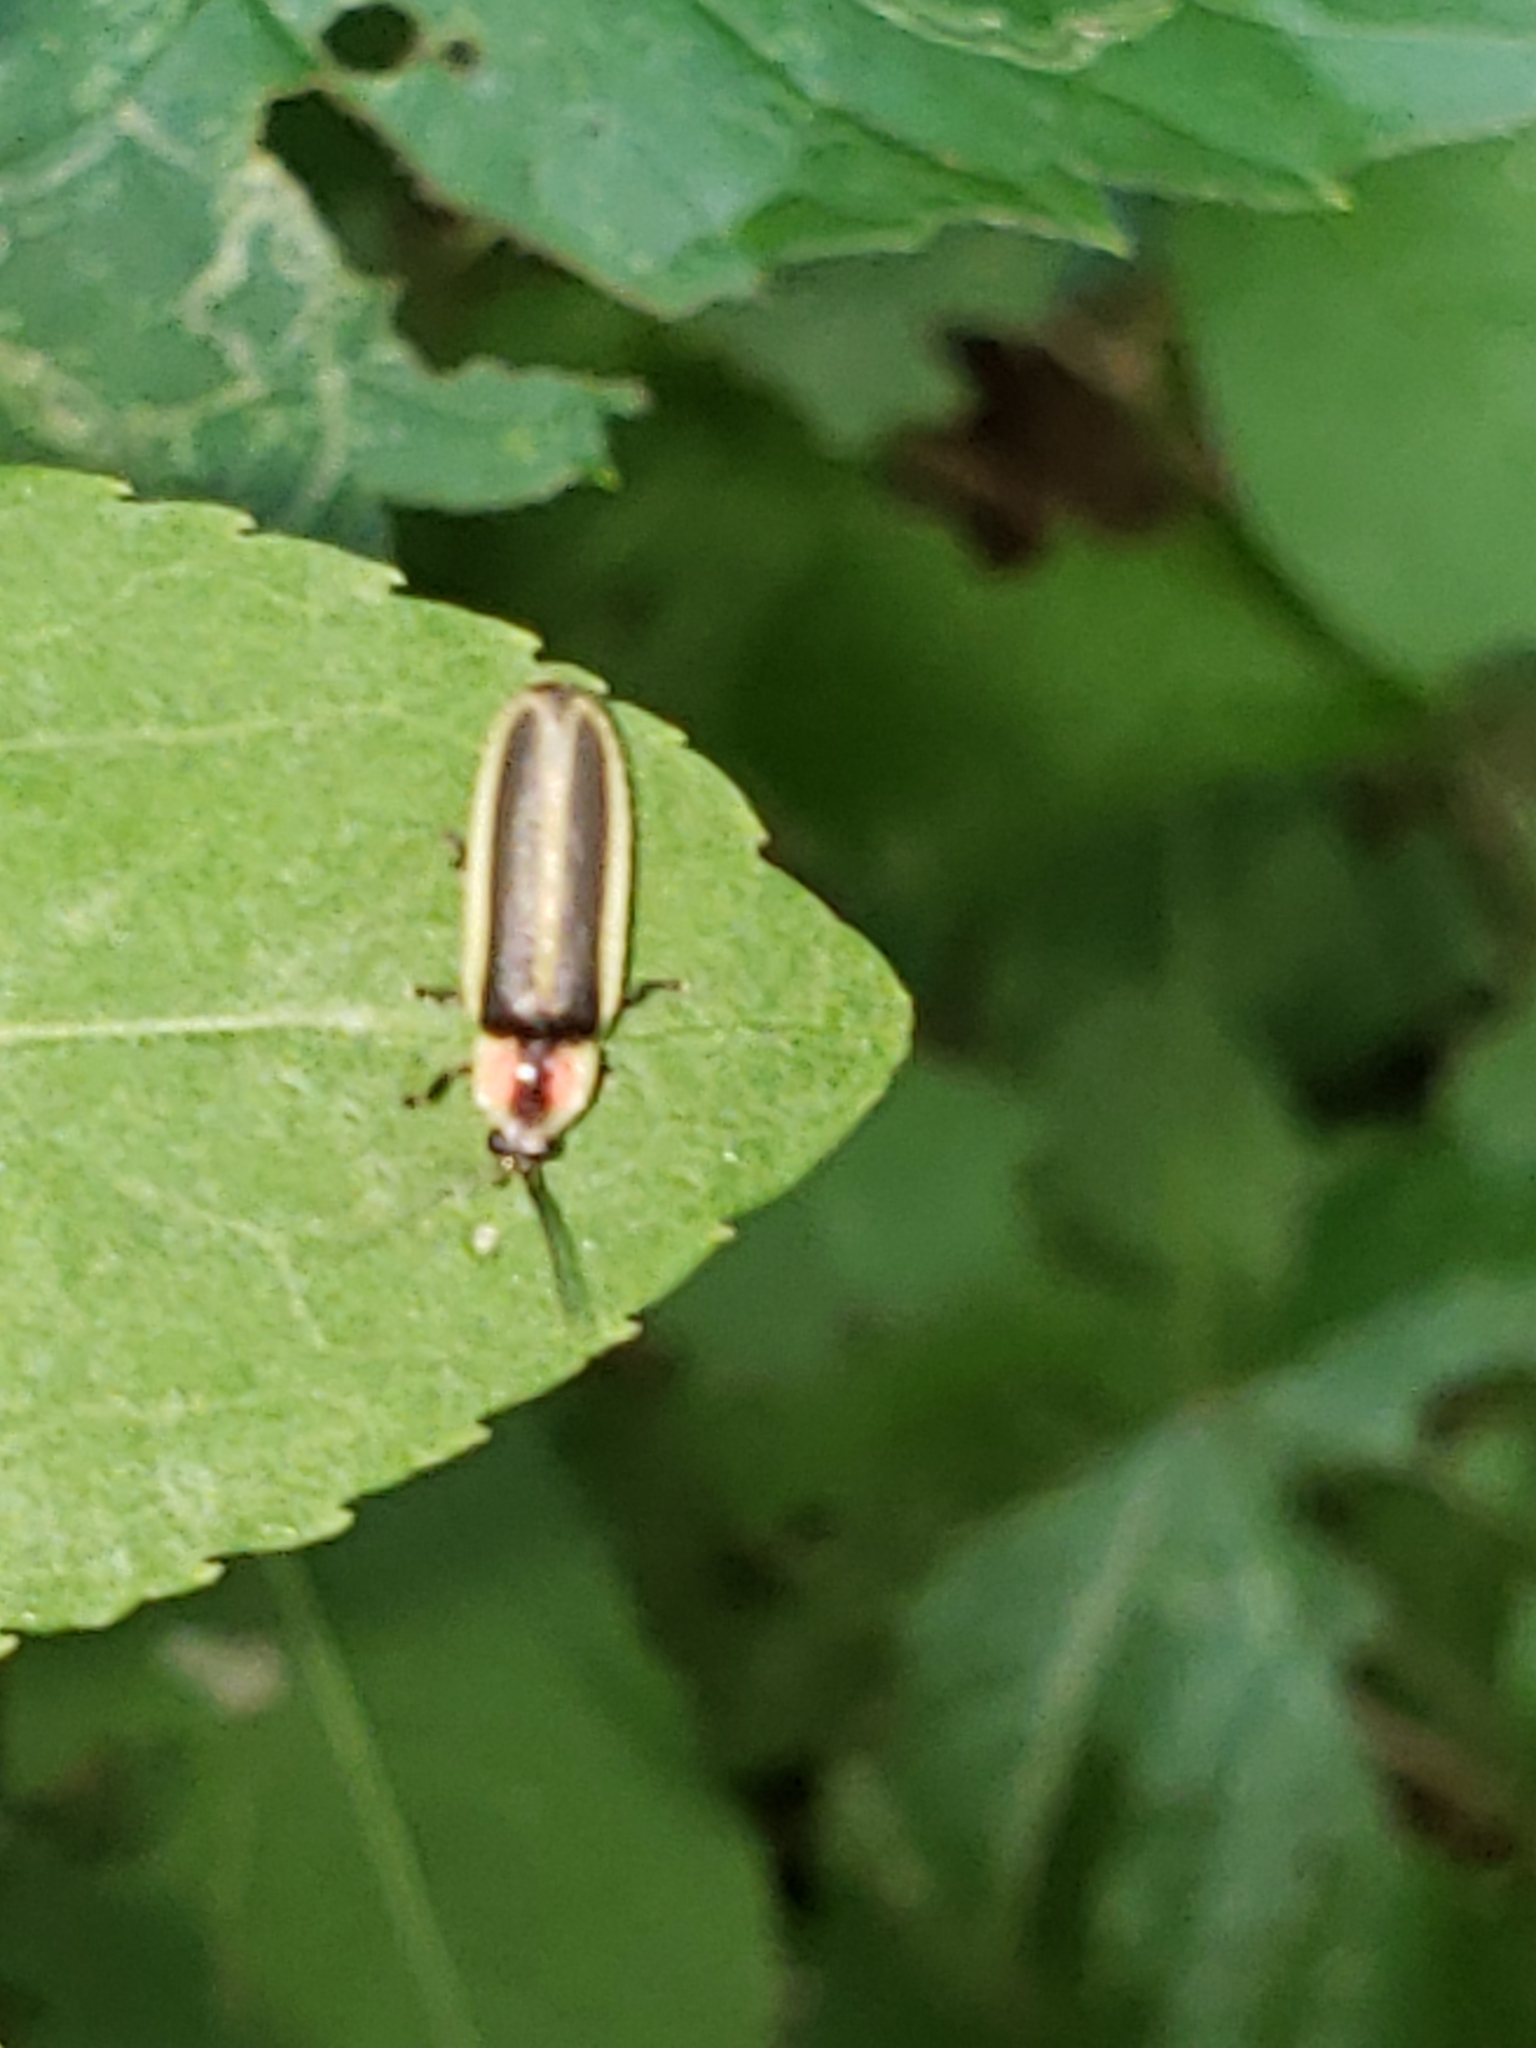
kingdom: Animalia
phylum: Arthropoda
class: Insecta
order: Coleoptera
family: Lampyridae
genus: Photinus
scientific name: Photinus pyralis
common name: Big dipper firefly
